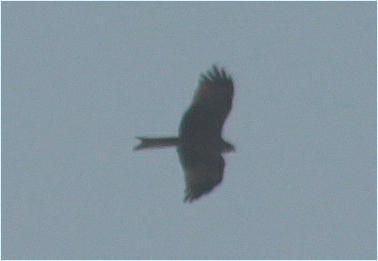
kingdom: Animalia
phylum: Chordata
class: Aves
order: Accipitriformes
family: Accipitridae
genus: Milvus
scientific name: Milvus migrans
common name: Black kite
